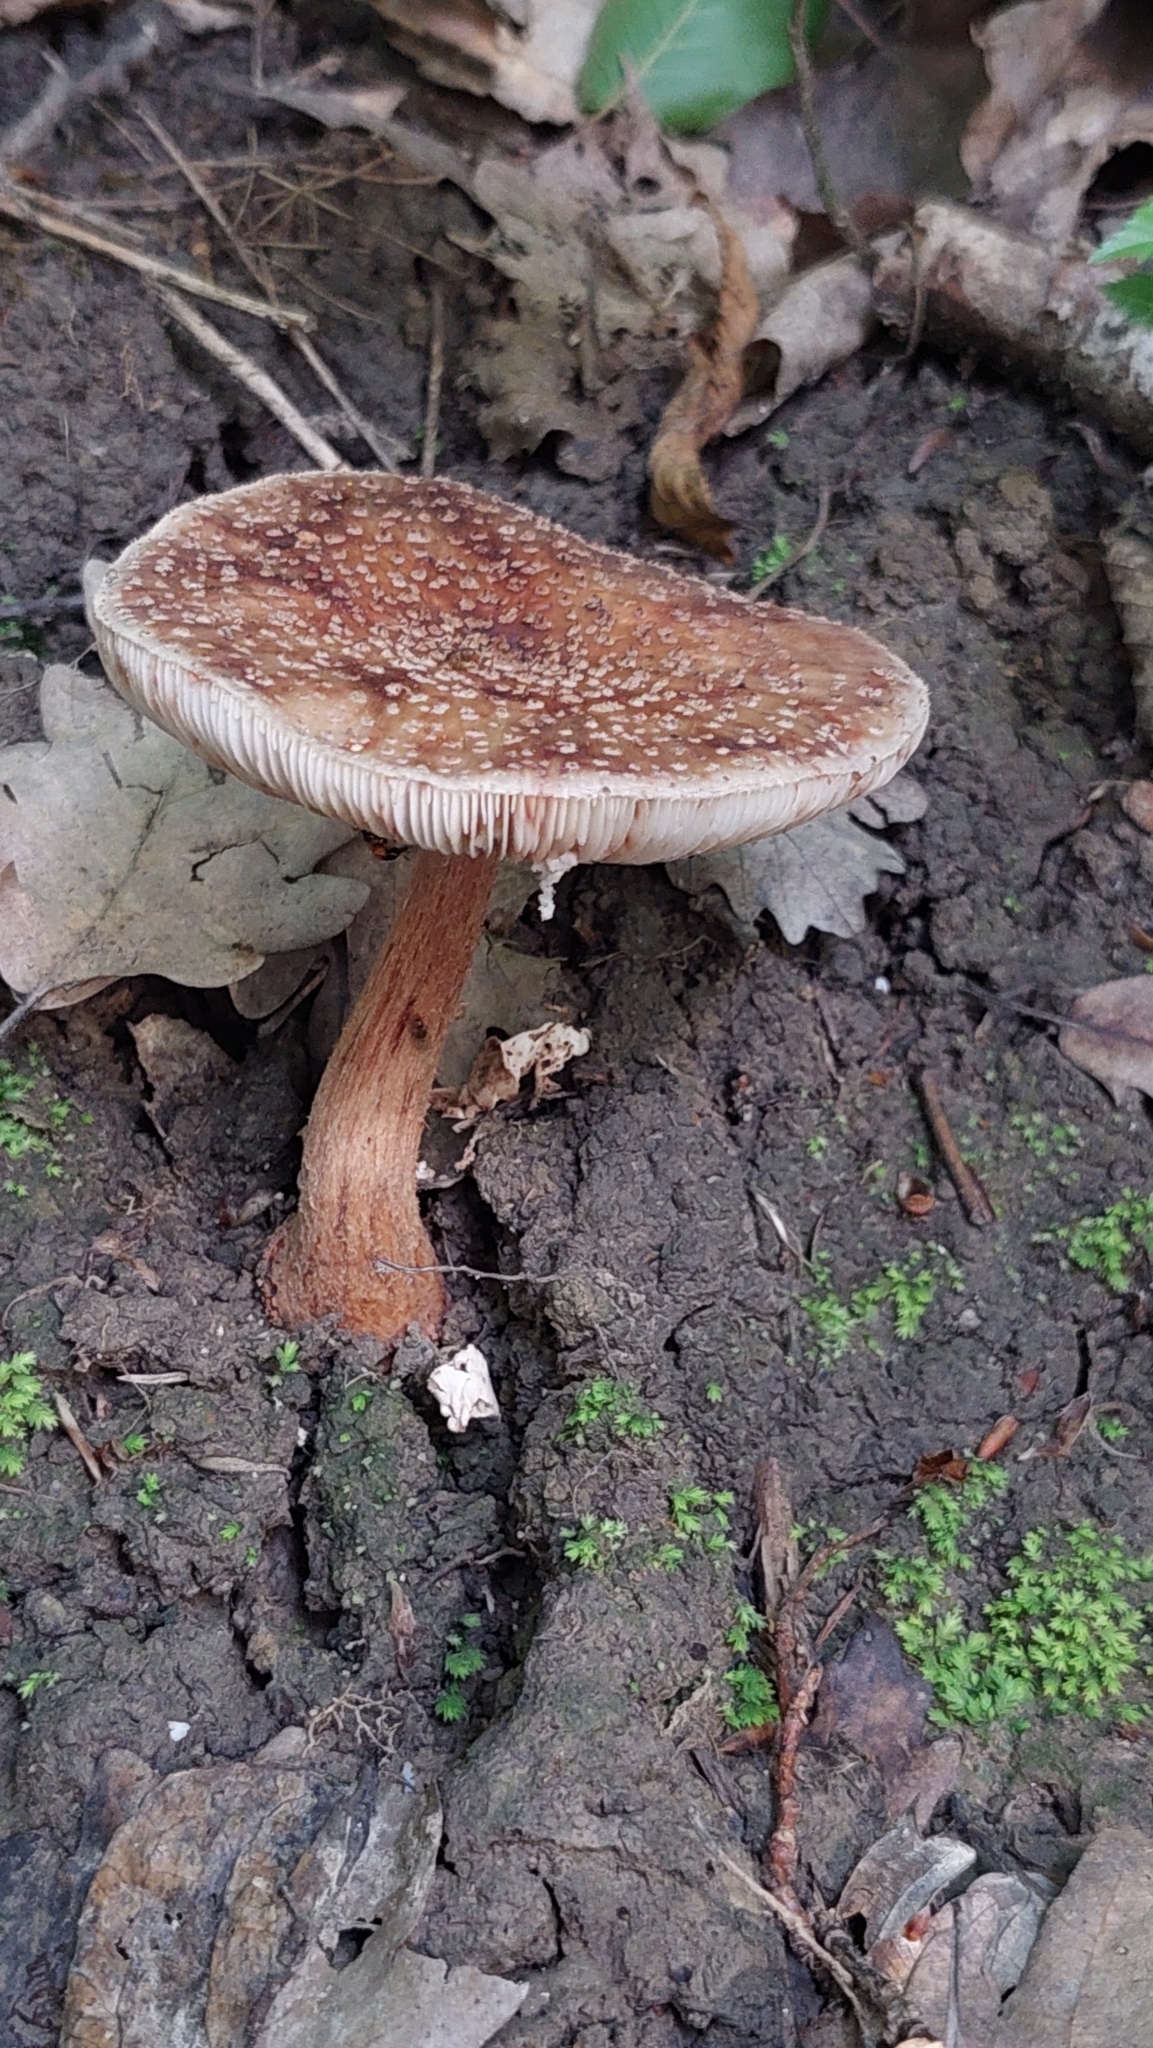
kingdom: Fungi
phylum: Basidiomycota
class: Agaricomycetes
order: Agaricales
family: Amanitaceae
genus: Amanita
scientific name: Amanita rubescens
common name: Blusher
